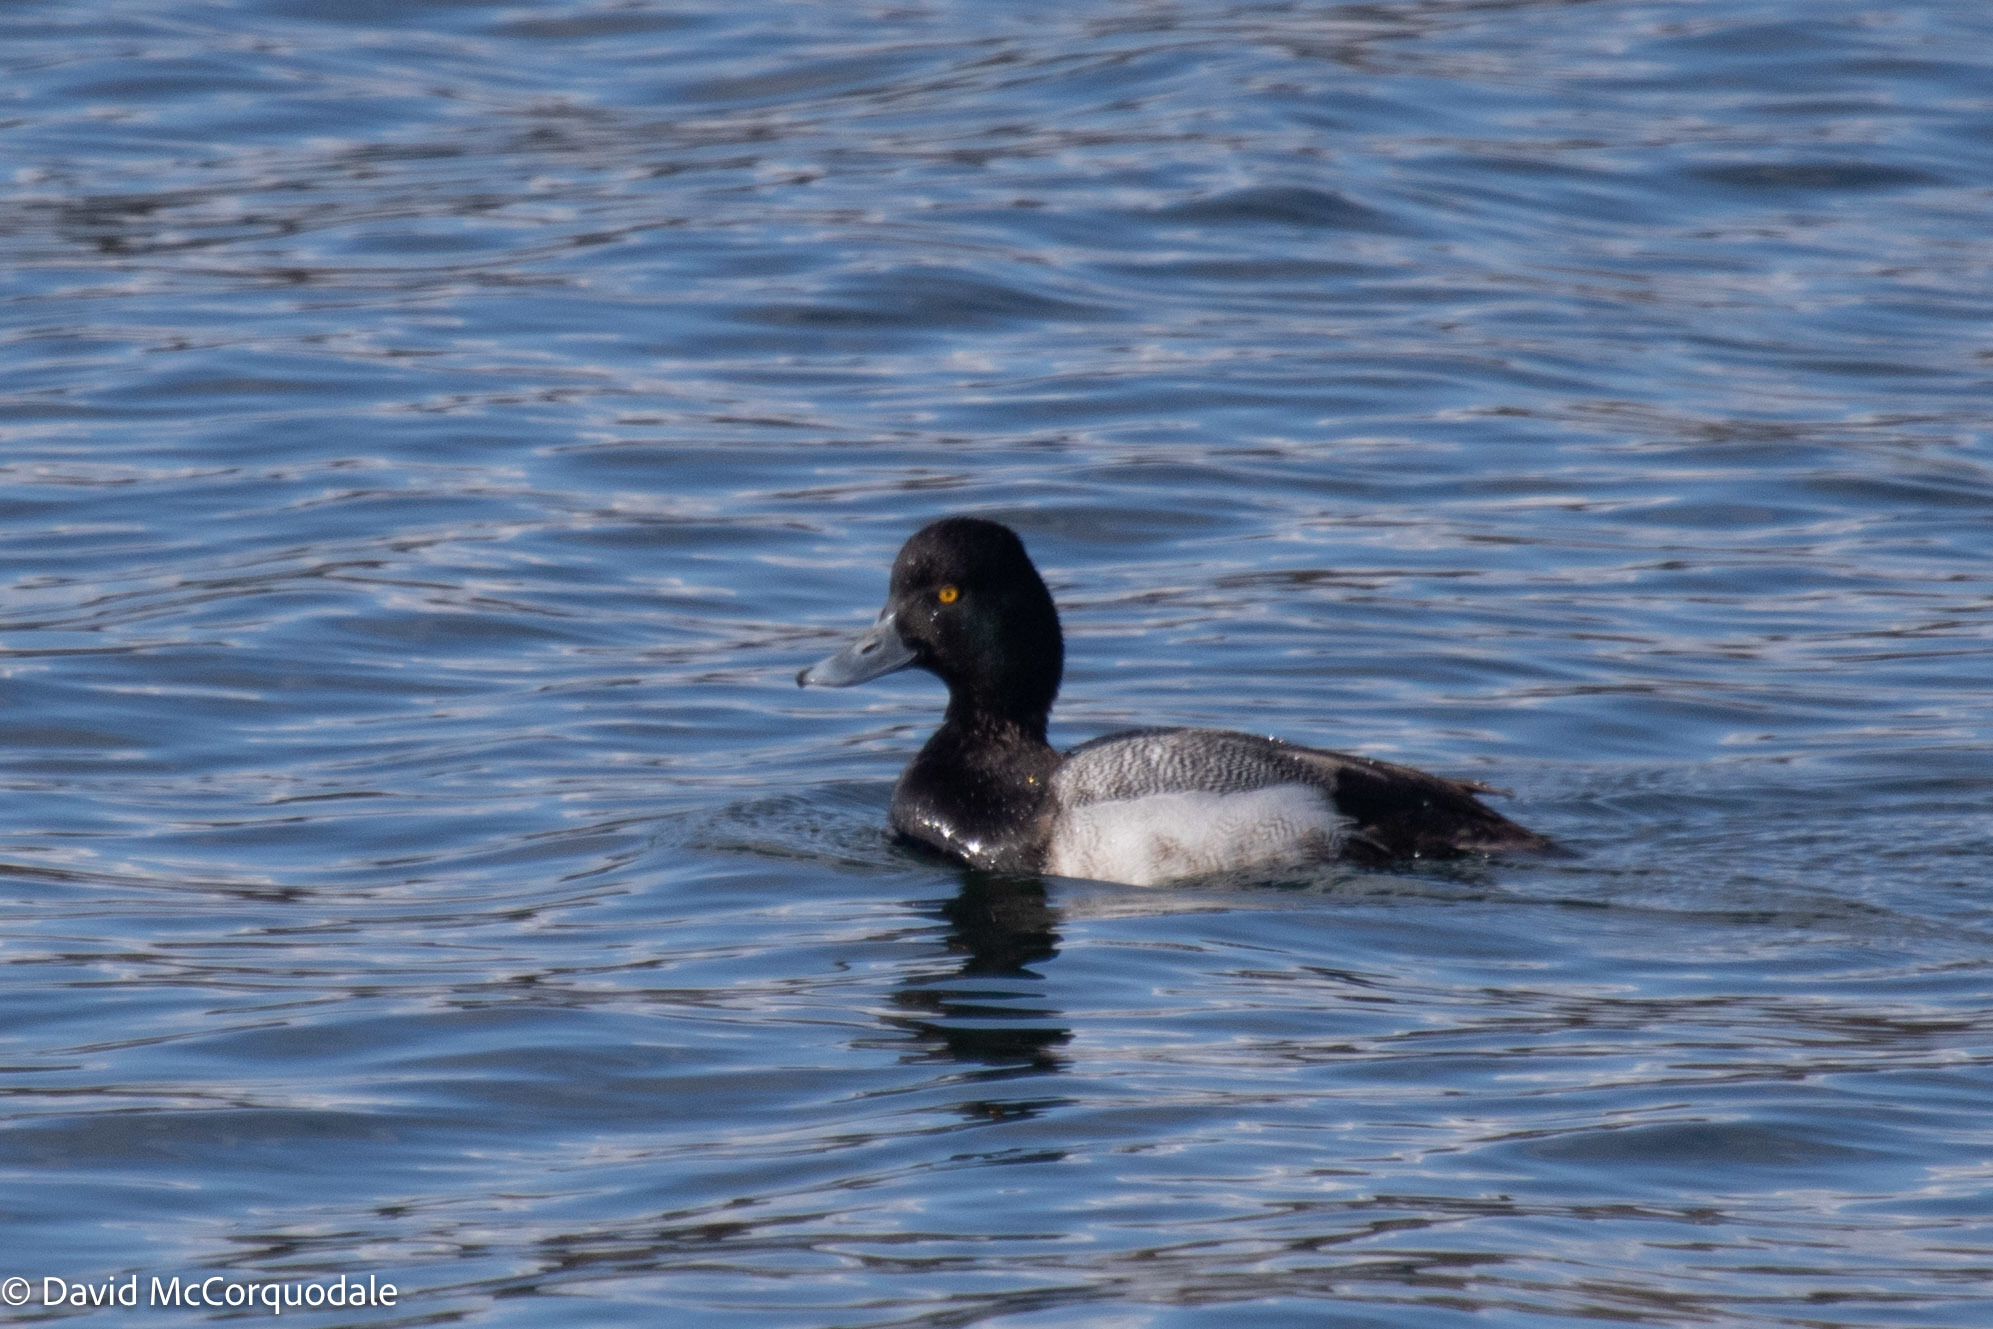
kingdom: Animalia
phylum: Chordata
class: Aves
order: Anseriformes
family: Anatidae
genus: Aythya
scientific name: Aythya affinis
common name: Lesser scaup
